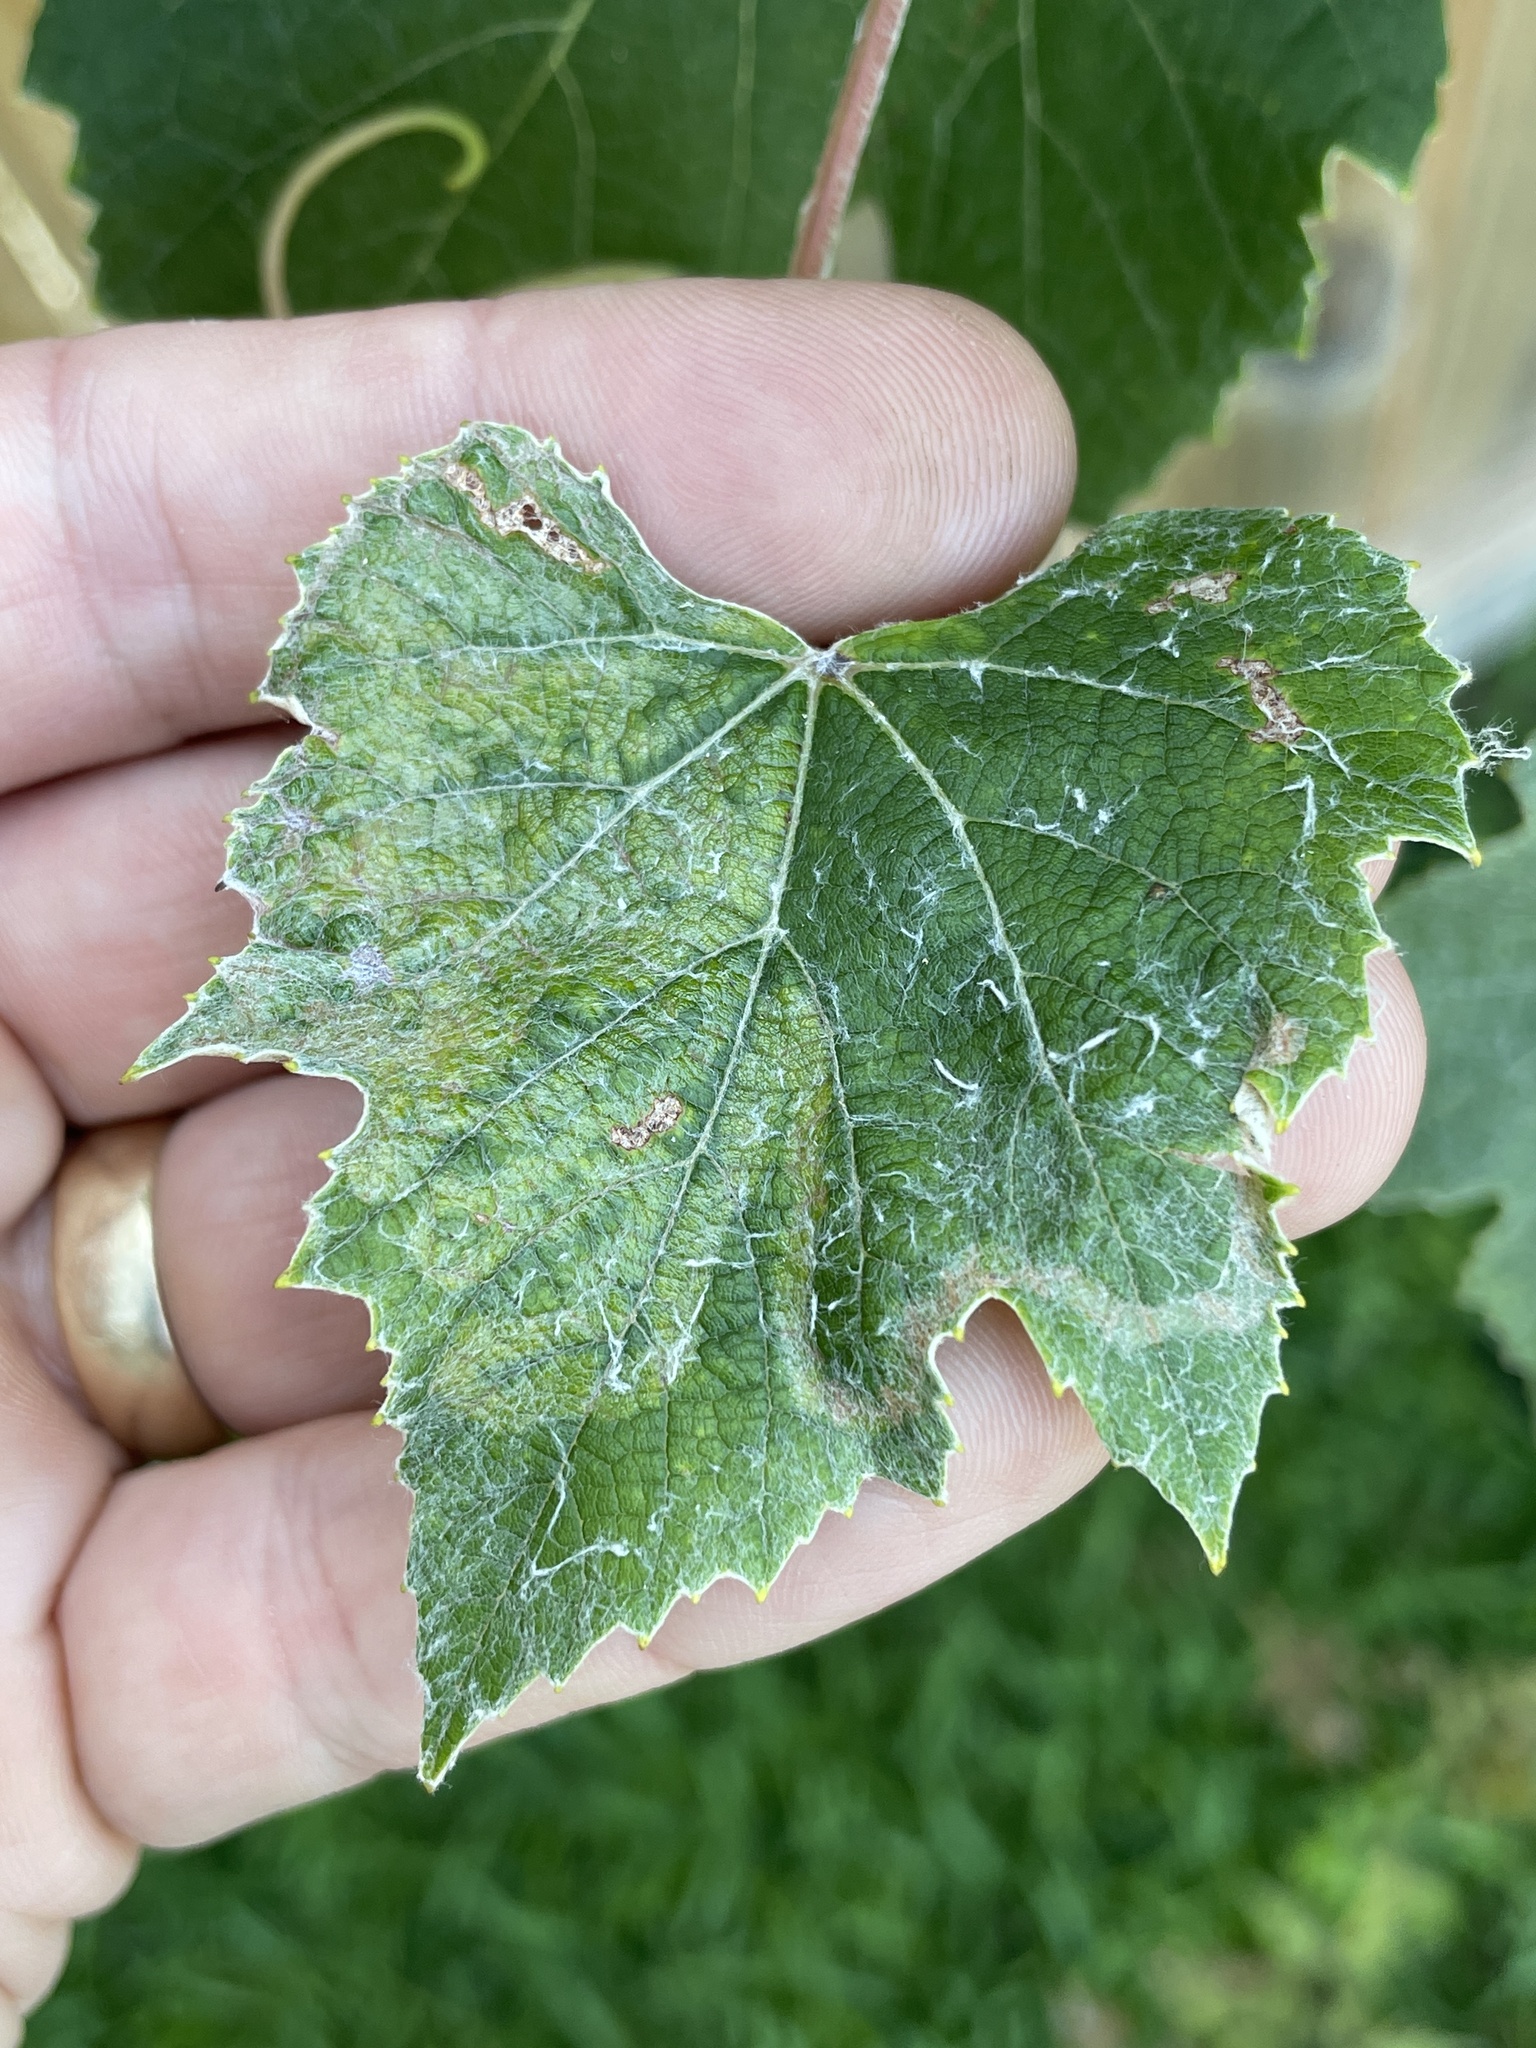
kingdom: Animalia
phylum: Arthropoda
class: Insecta
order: Lepidoptera
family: Gracillariidae
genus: Phyllocnistis
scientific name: Phyllocnistis vitegenella
